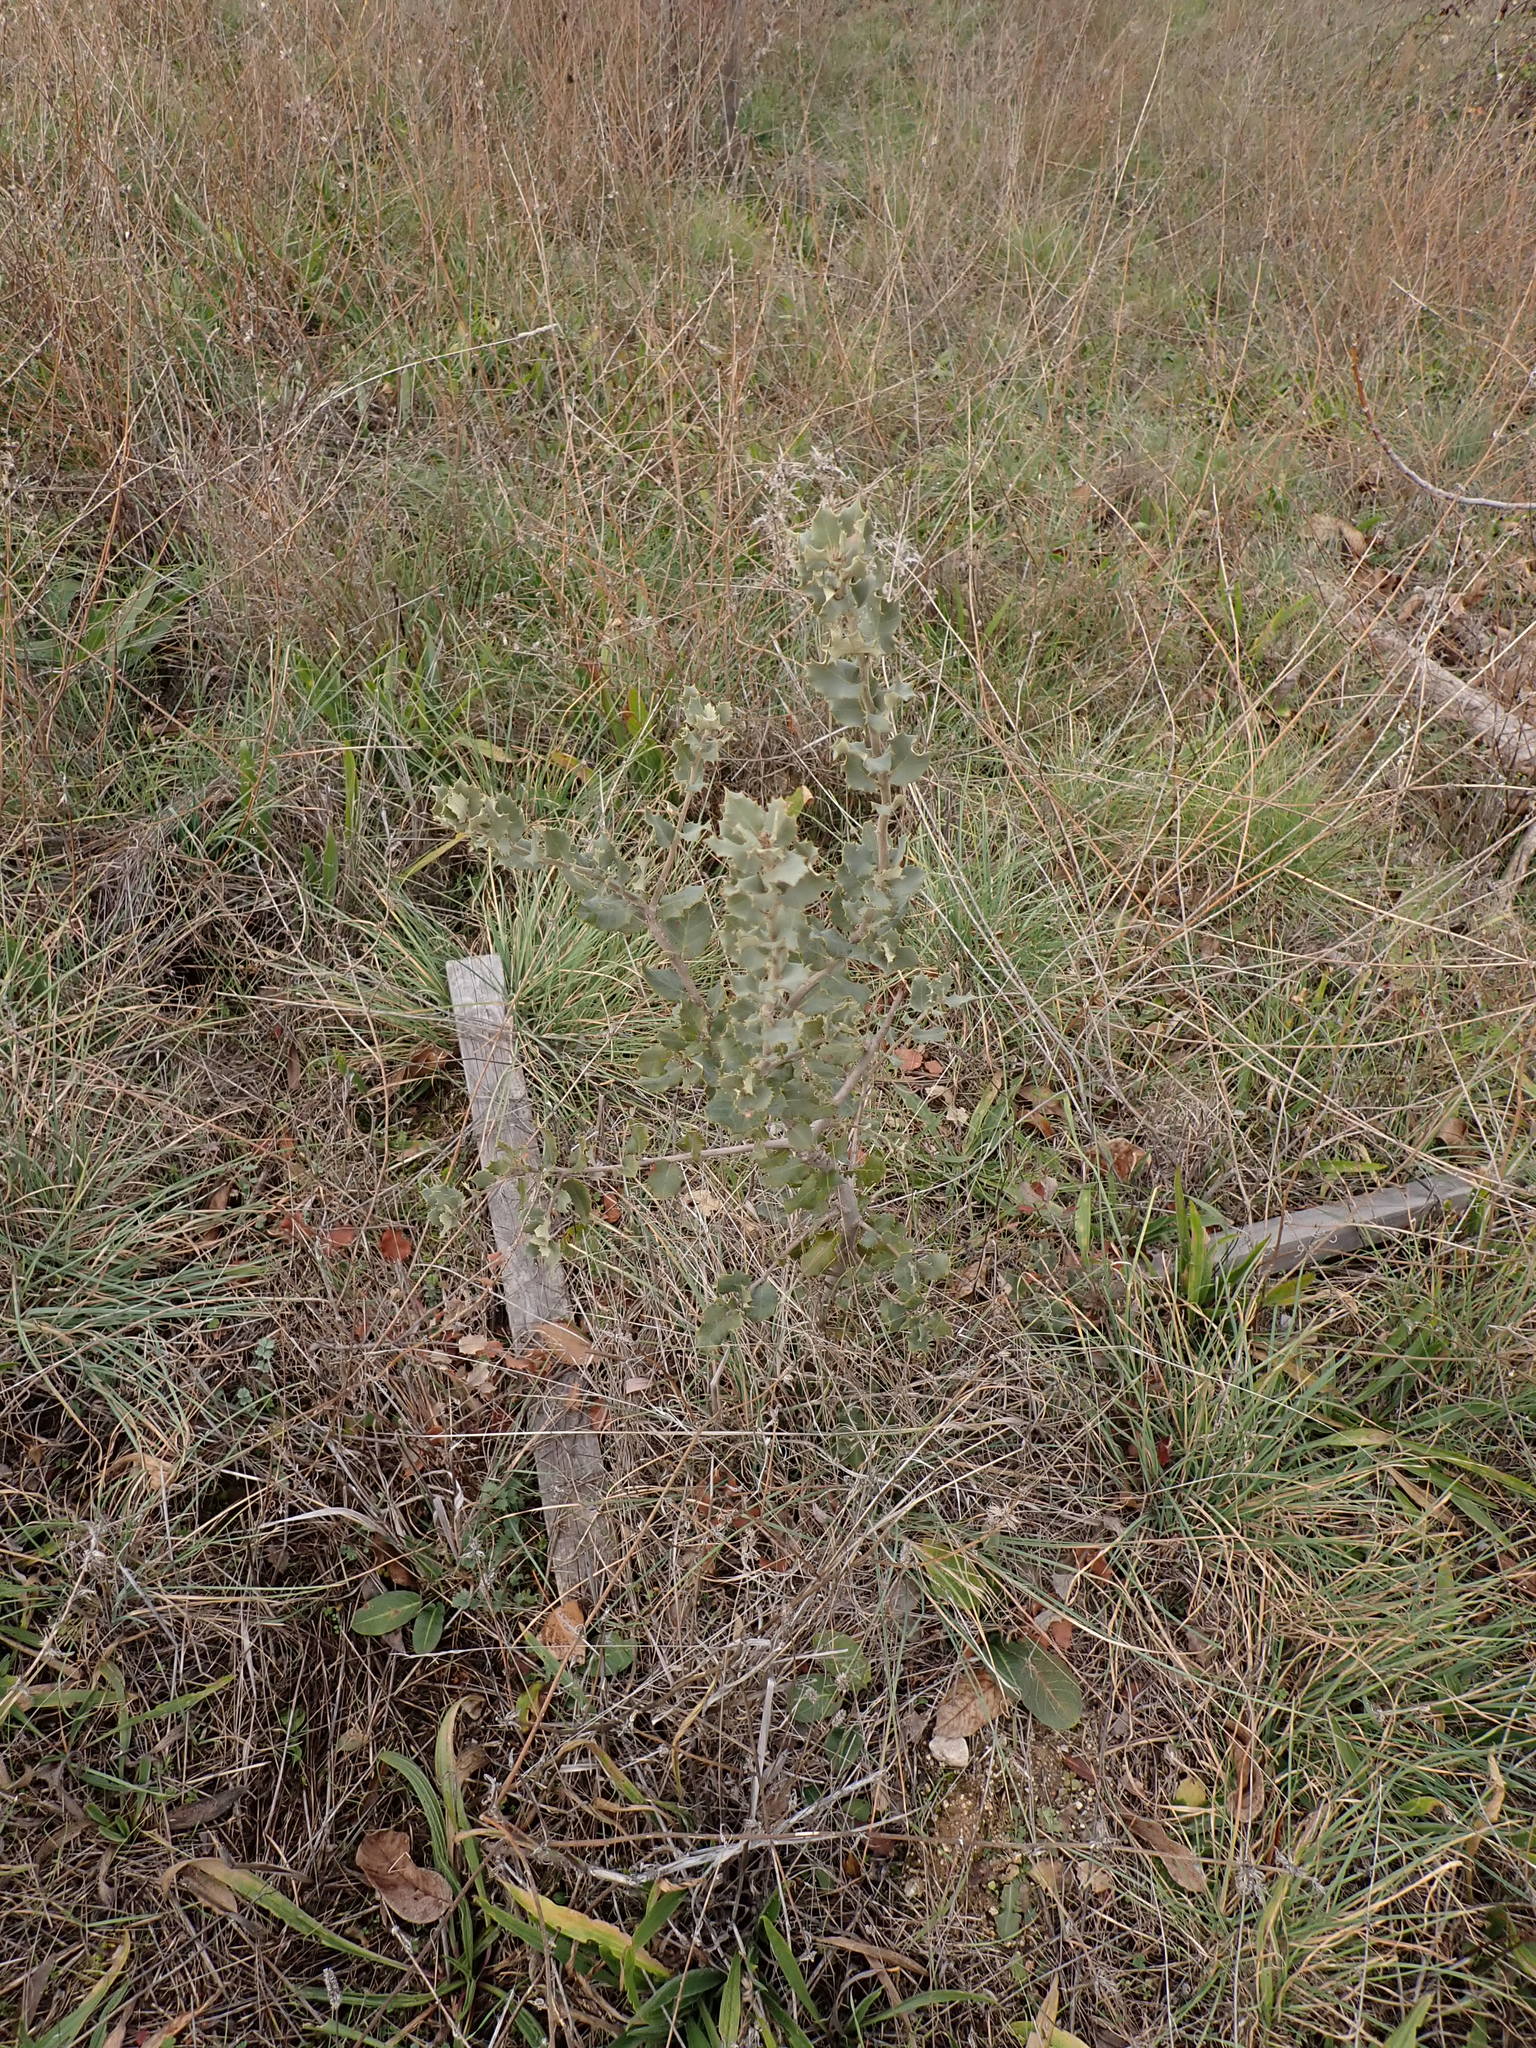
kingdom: Plantae
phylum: Tracheophyta
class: Magnoliopsida
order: Fagales
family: Fagaceae
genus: Quercus
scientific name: Quercus rotundifolia
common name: Holm oak
